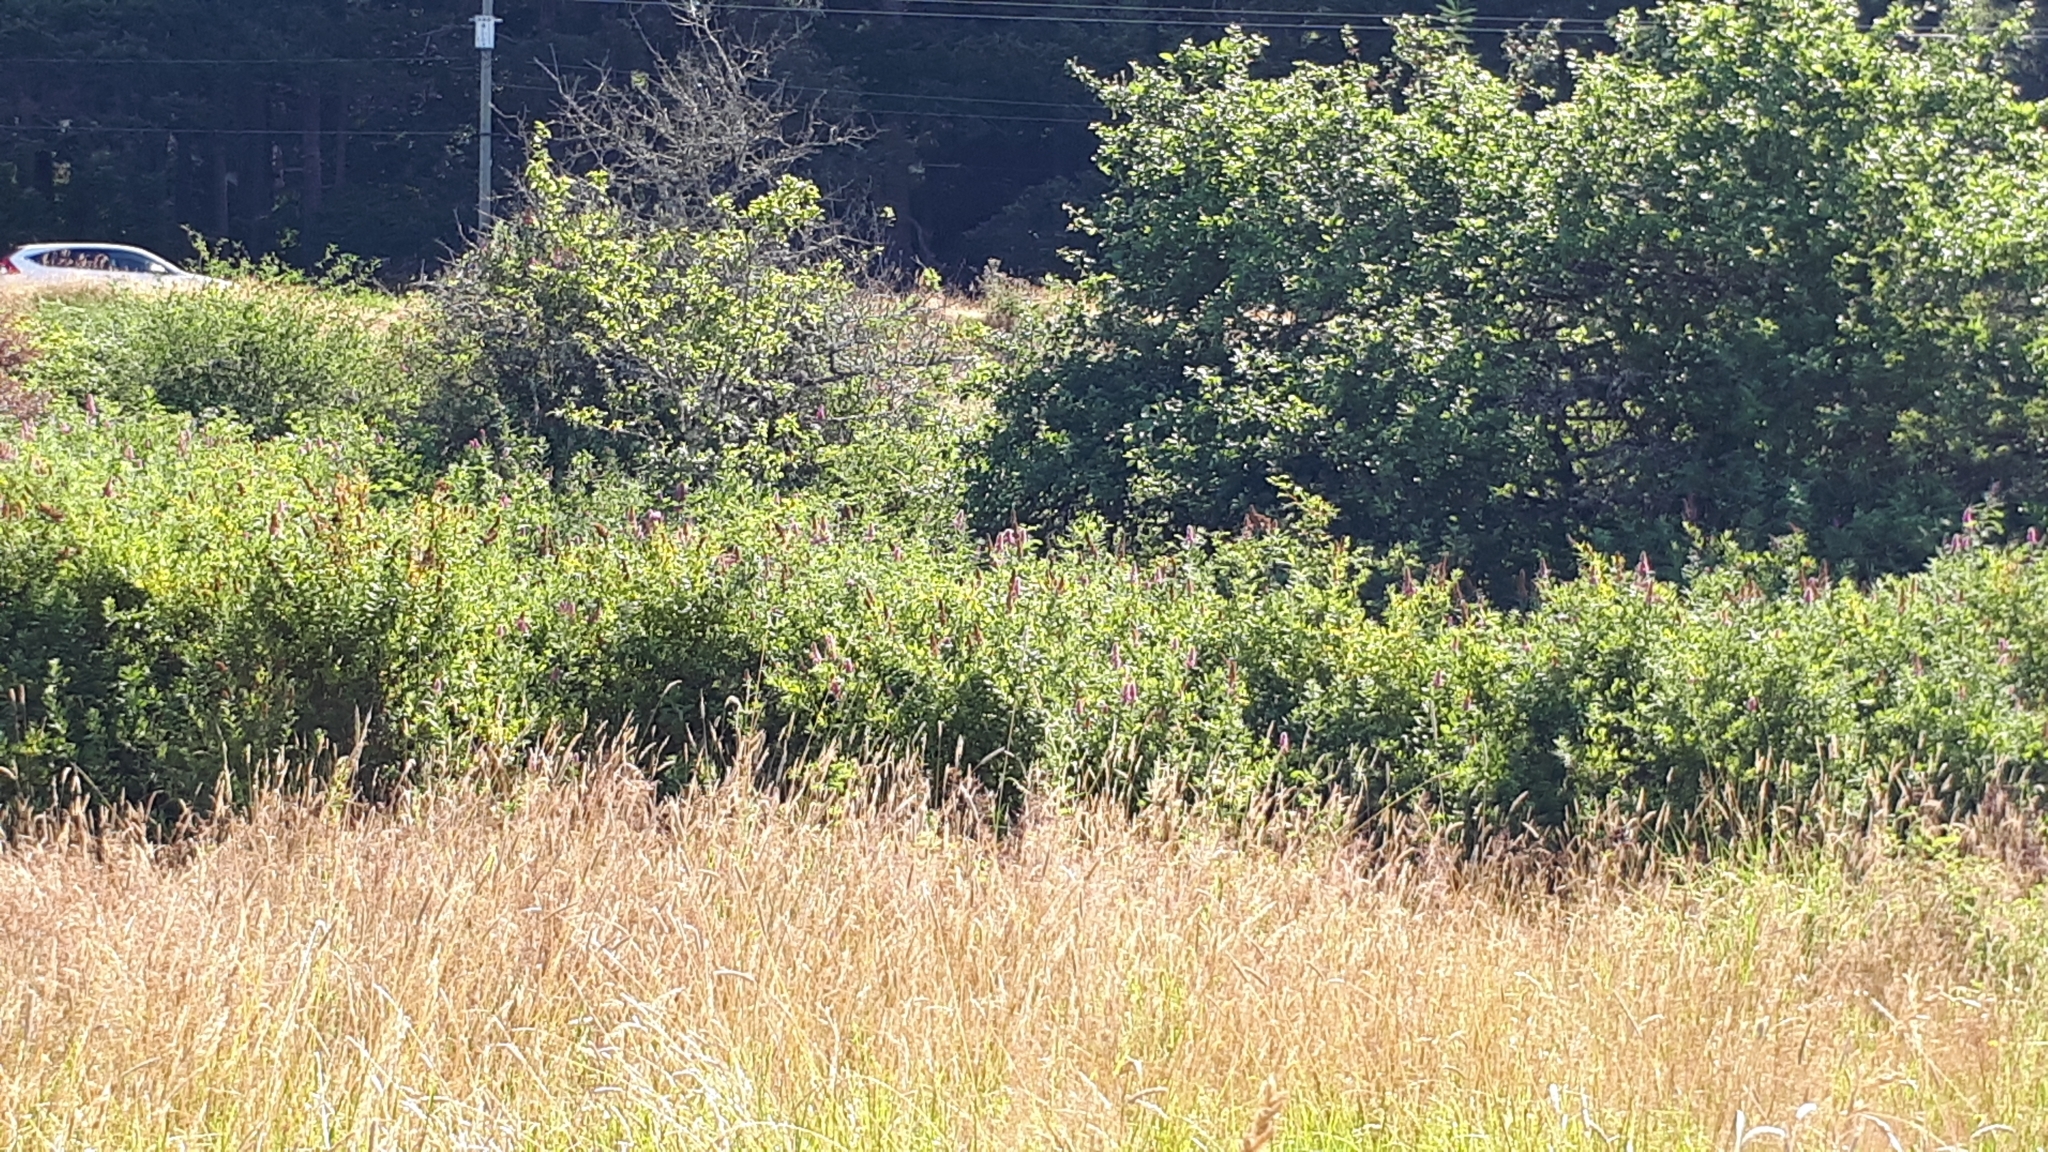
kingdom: Plantae
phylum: Tracheophyta
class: Magnoliopsida
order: Rosales
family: Rosaceae
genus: Spiraea
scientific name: Spiraea douglasii
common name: Steeplebush
